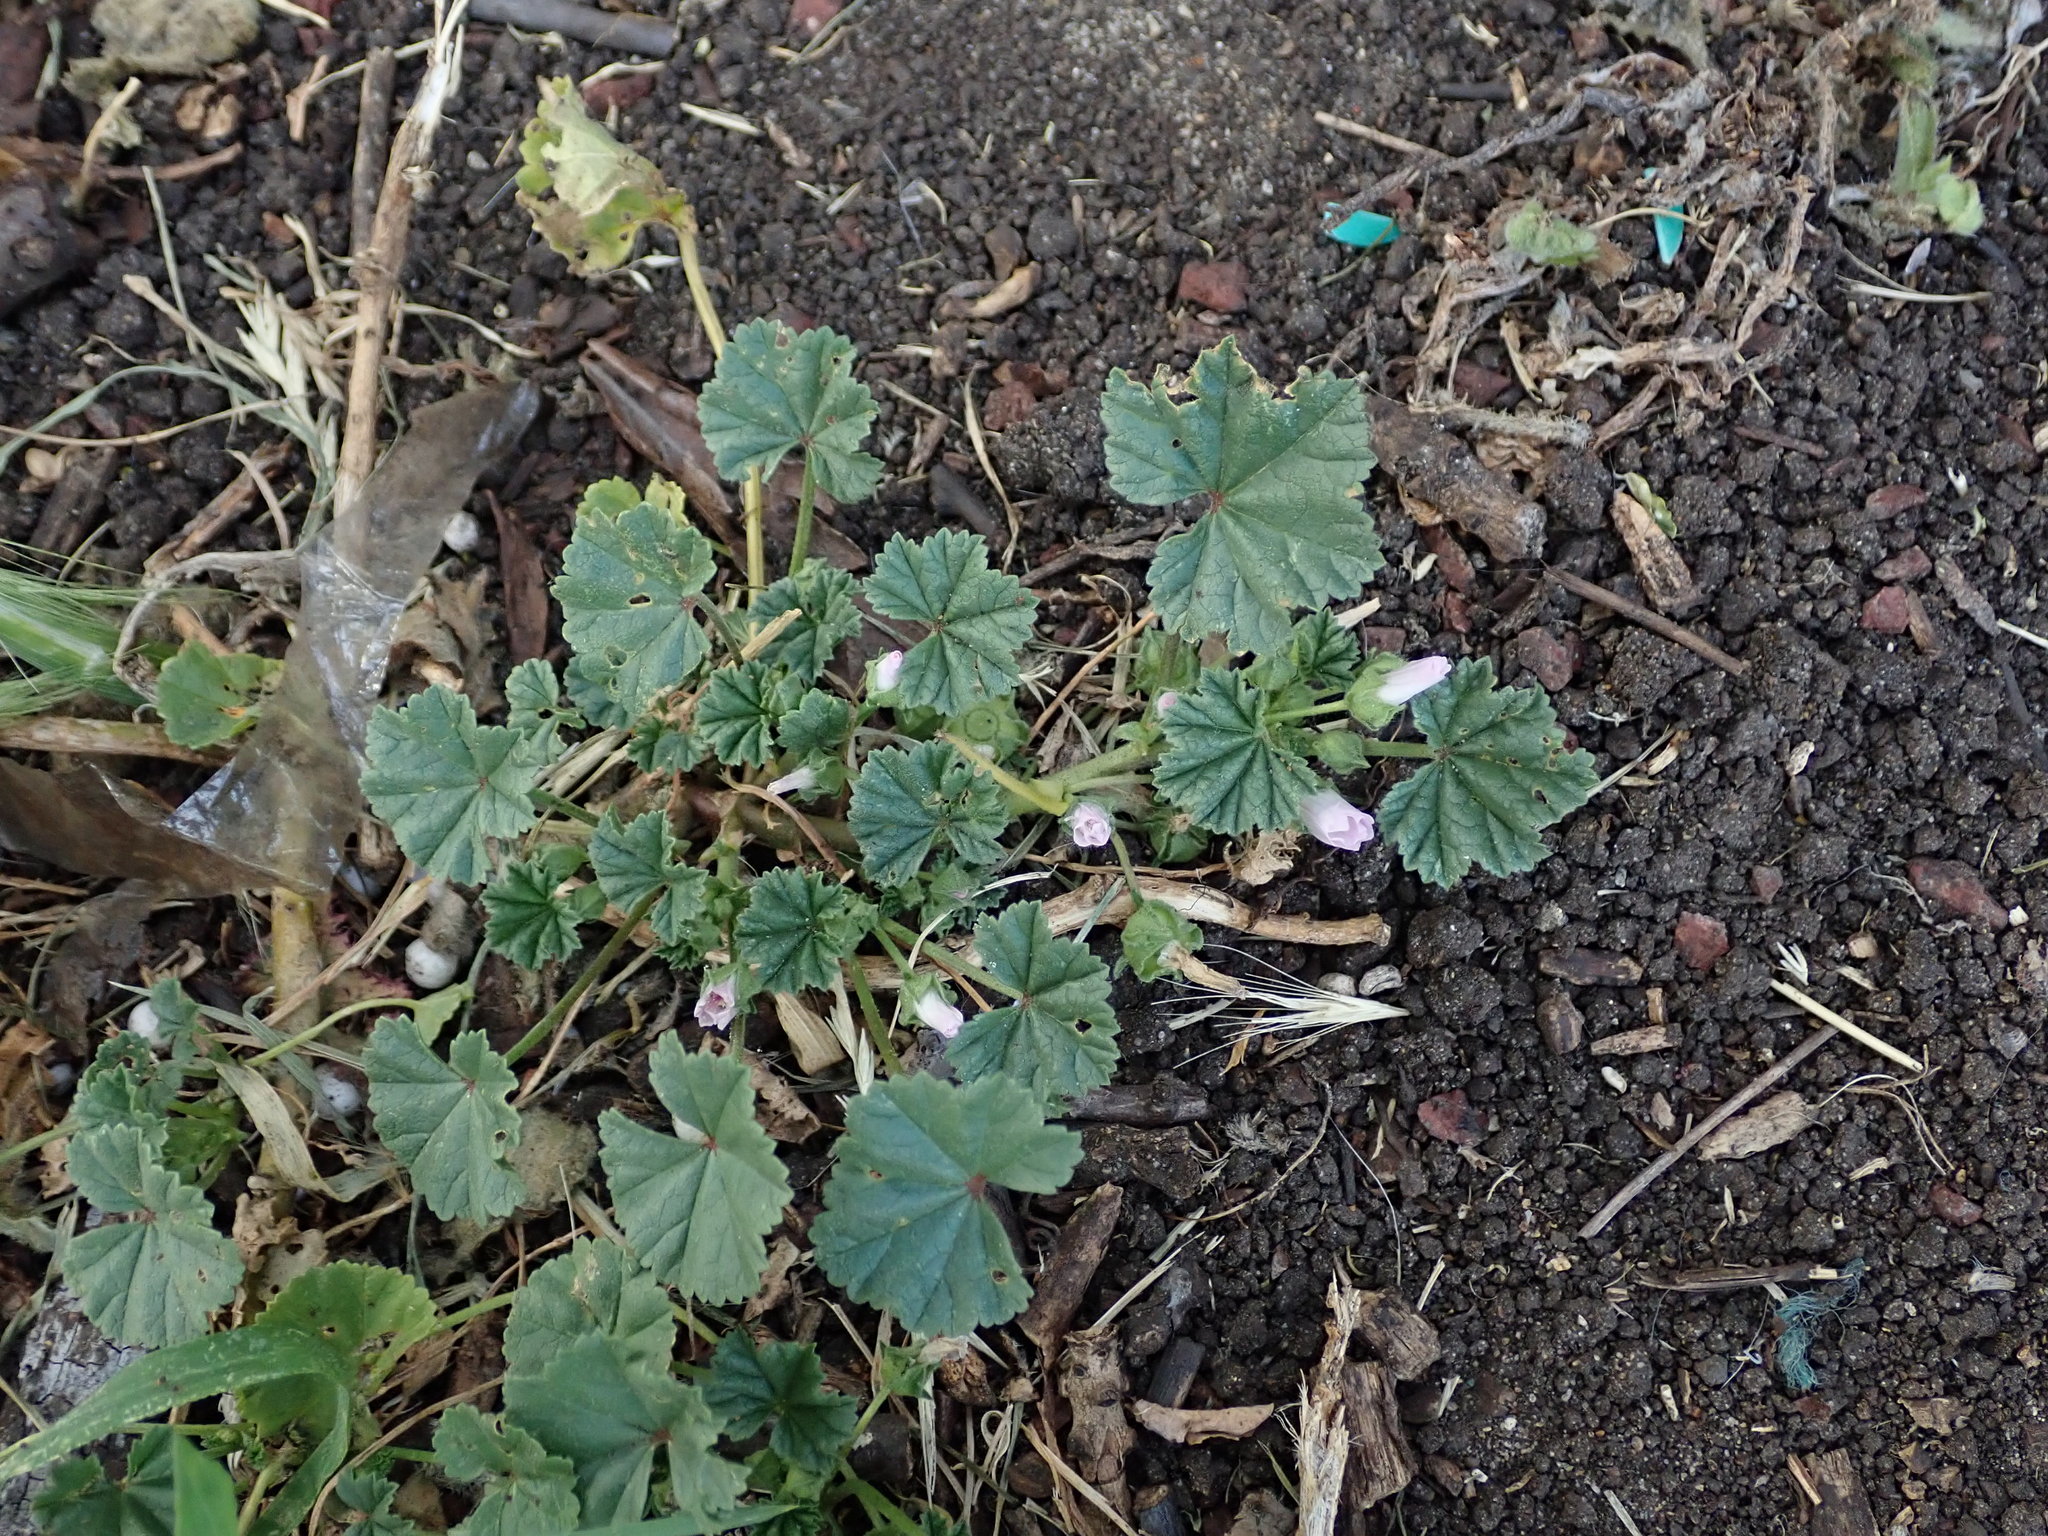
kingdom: Plantae
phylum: Tracheophyta
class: Magnoliopsida
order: Malvales
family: Malvaceae
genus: Malva
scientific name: Malva neglecta
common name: Common mallow
